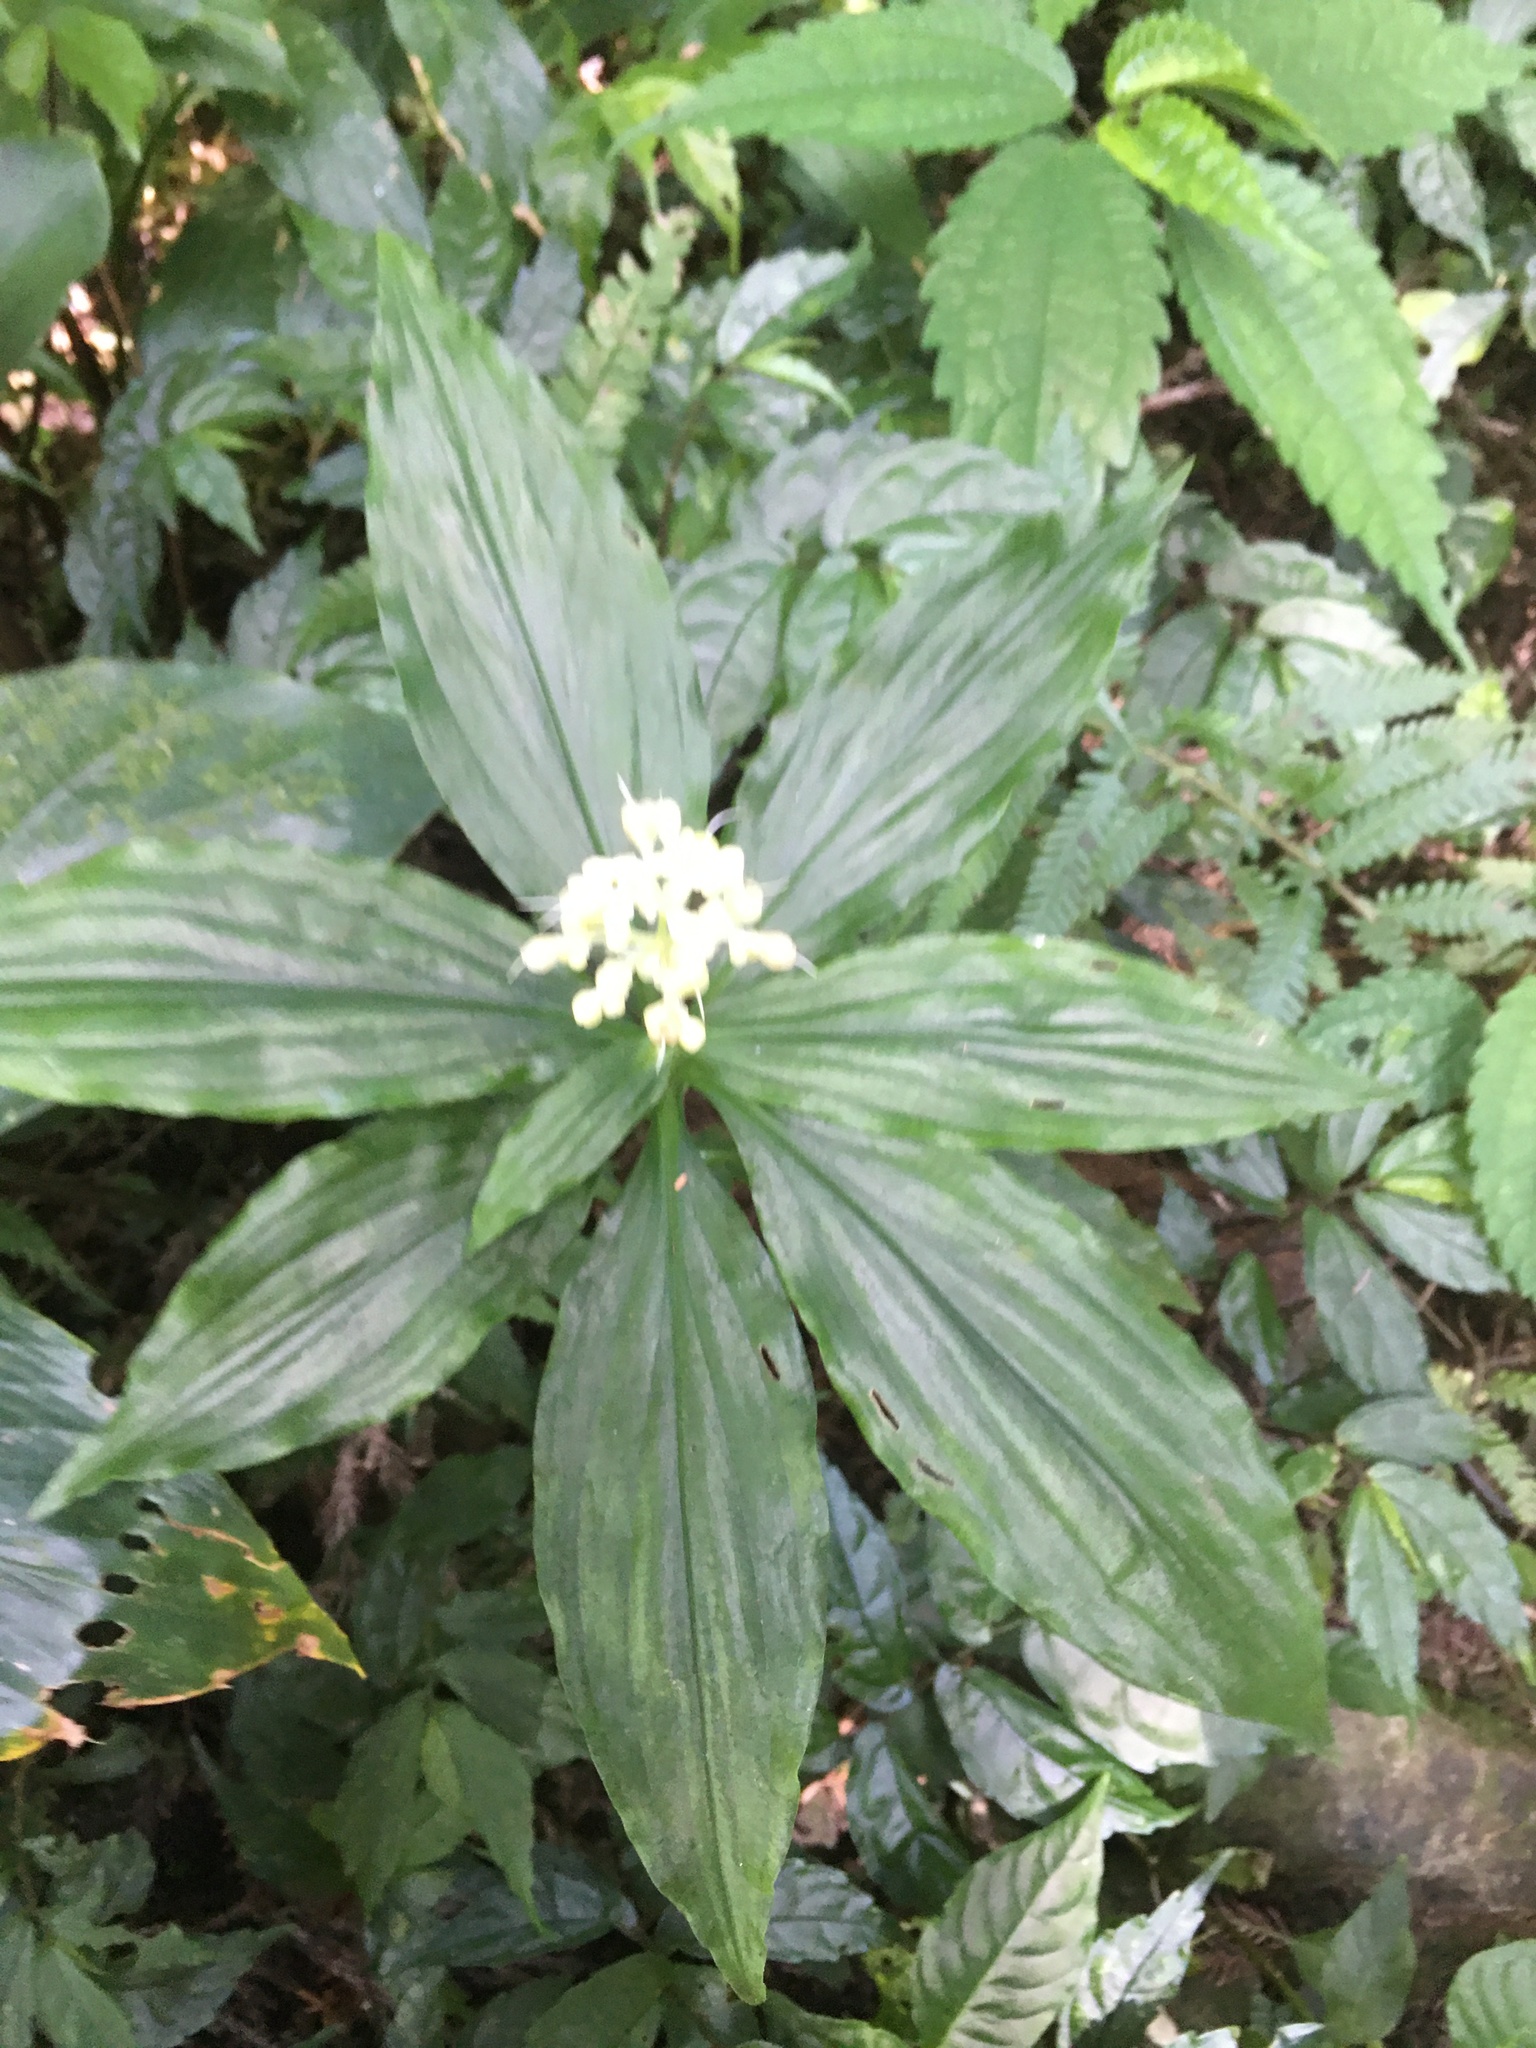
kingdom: Plantae
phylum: Tracheophyta
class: Liliopsida
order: Commelinales
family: Commelinaceae
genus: Pollia
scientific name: Pollia japonica
